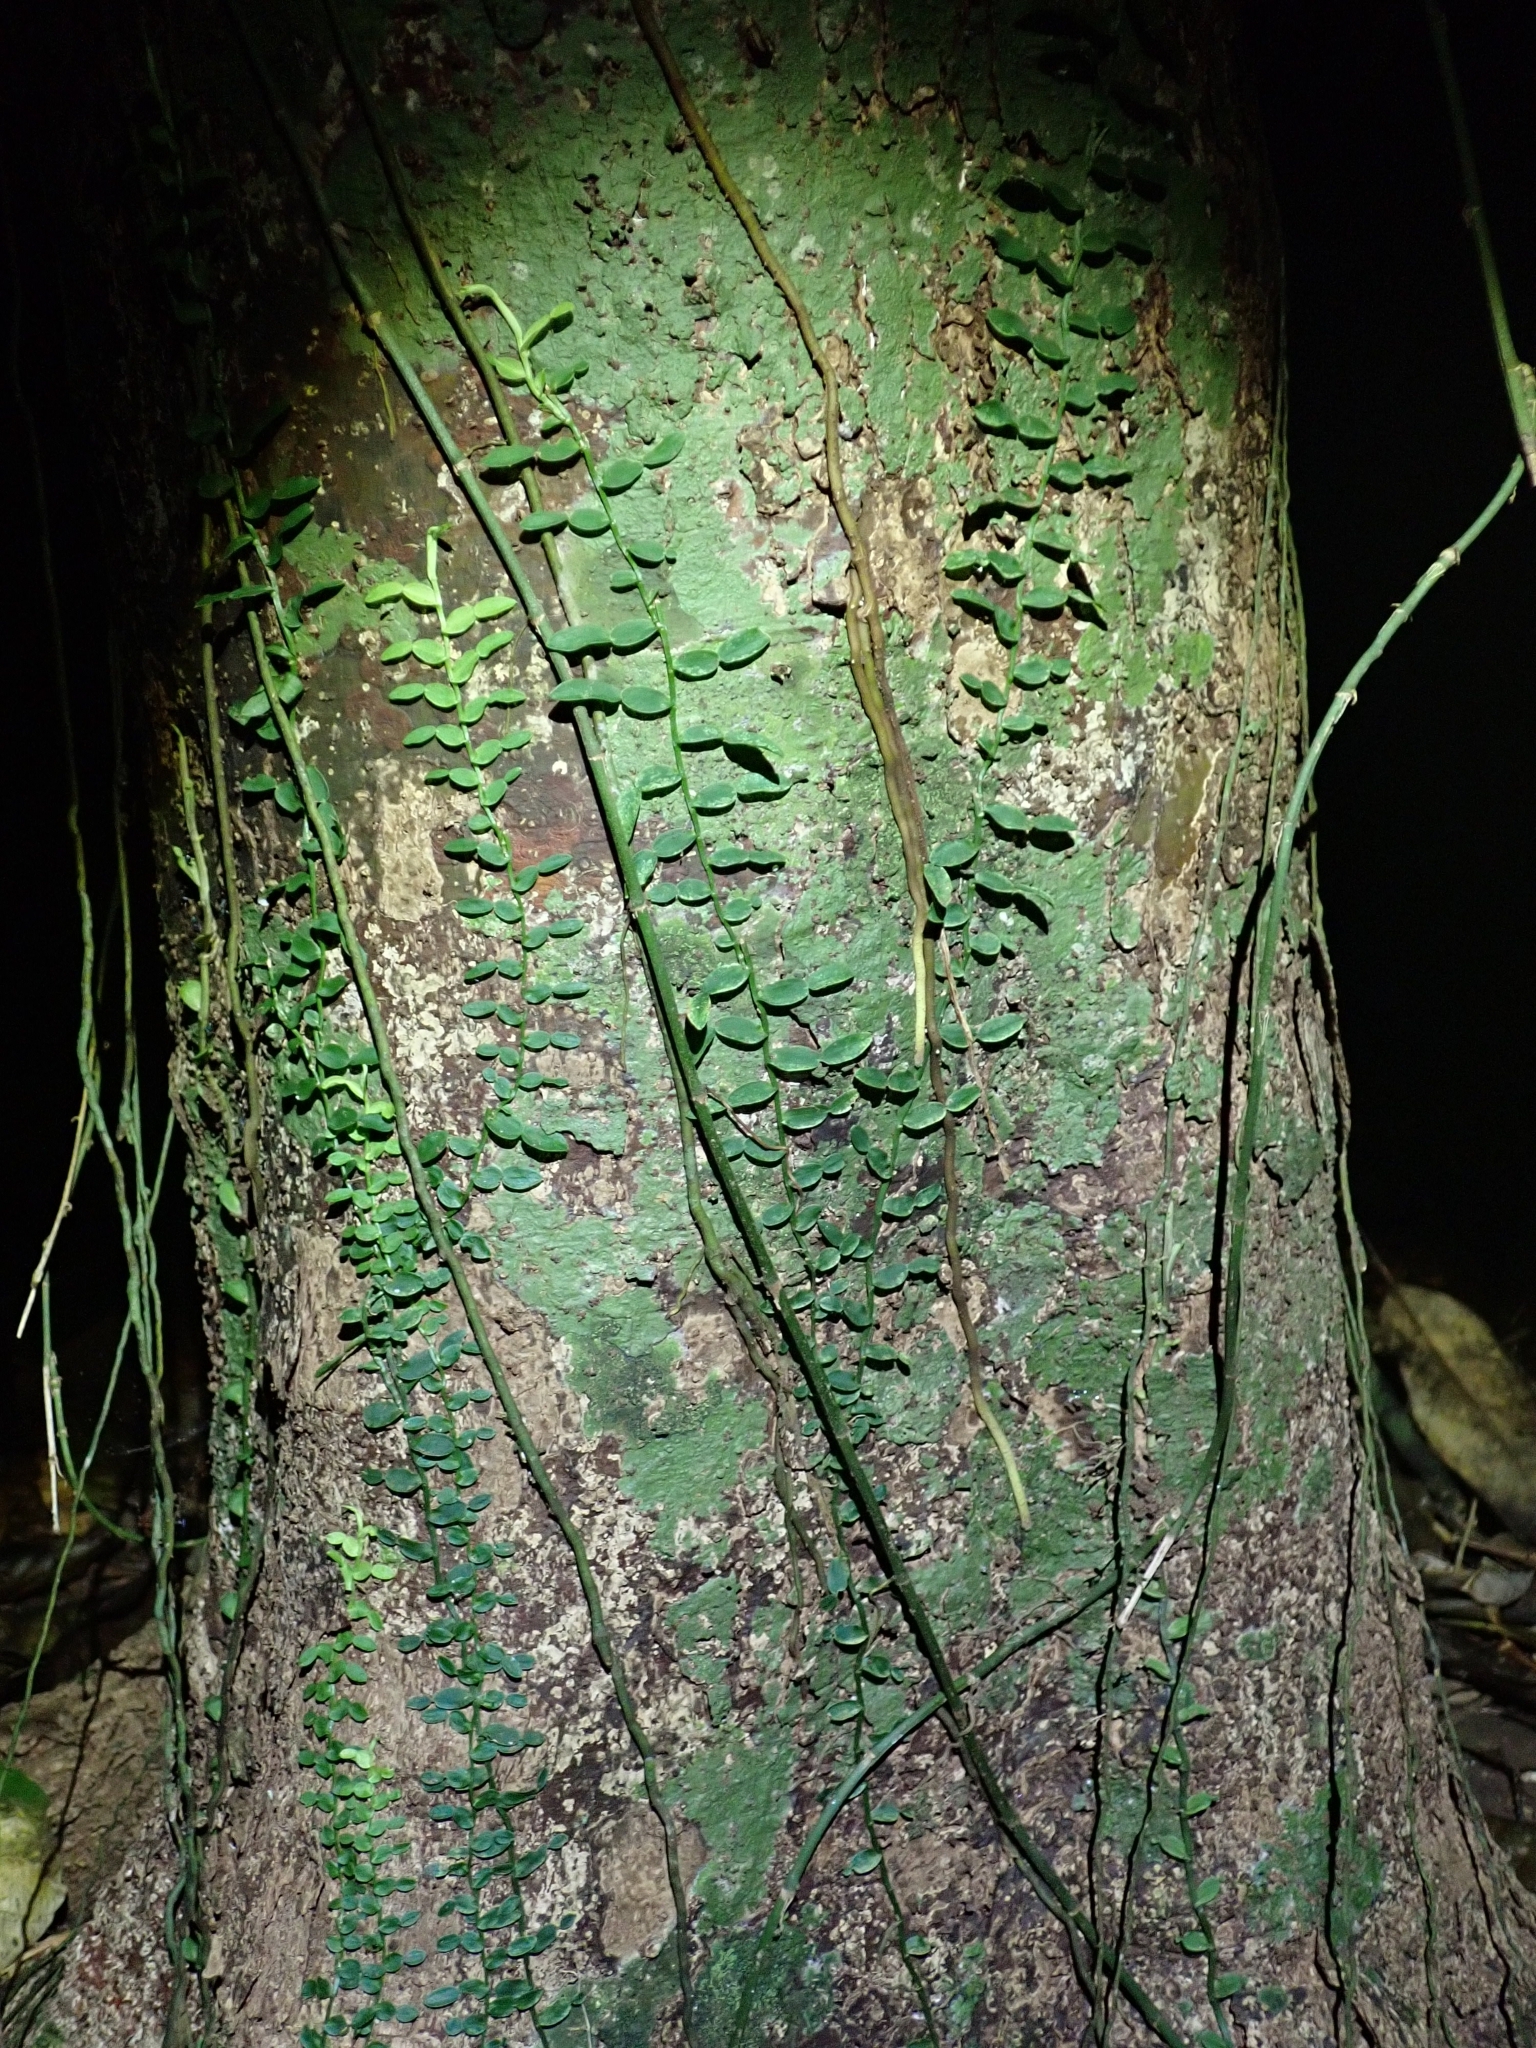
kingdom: Plantae
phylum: Tracheophyta
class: Liliopsida
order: Alismatales
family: Araceae
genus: Pothos
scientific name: Pothos longipes
